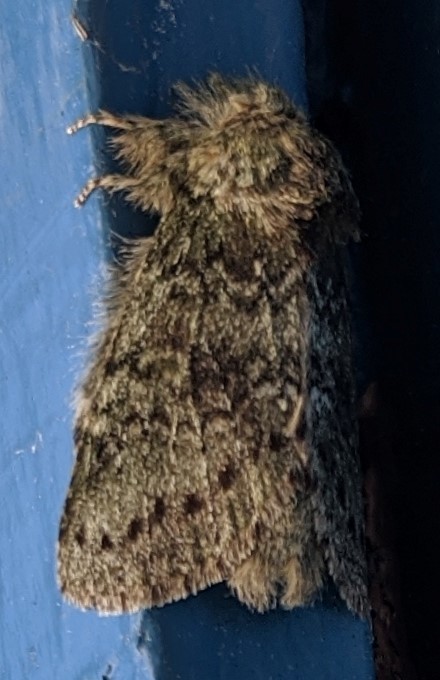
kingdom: Animalia
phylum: Arthropoda
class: Insecta
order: Lepidoptera
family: Notodontidae
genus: Disphragis
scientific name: Disphragis Cecrita guttivitta
